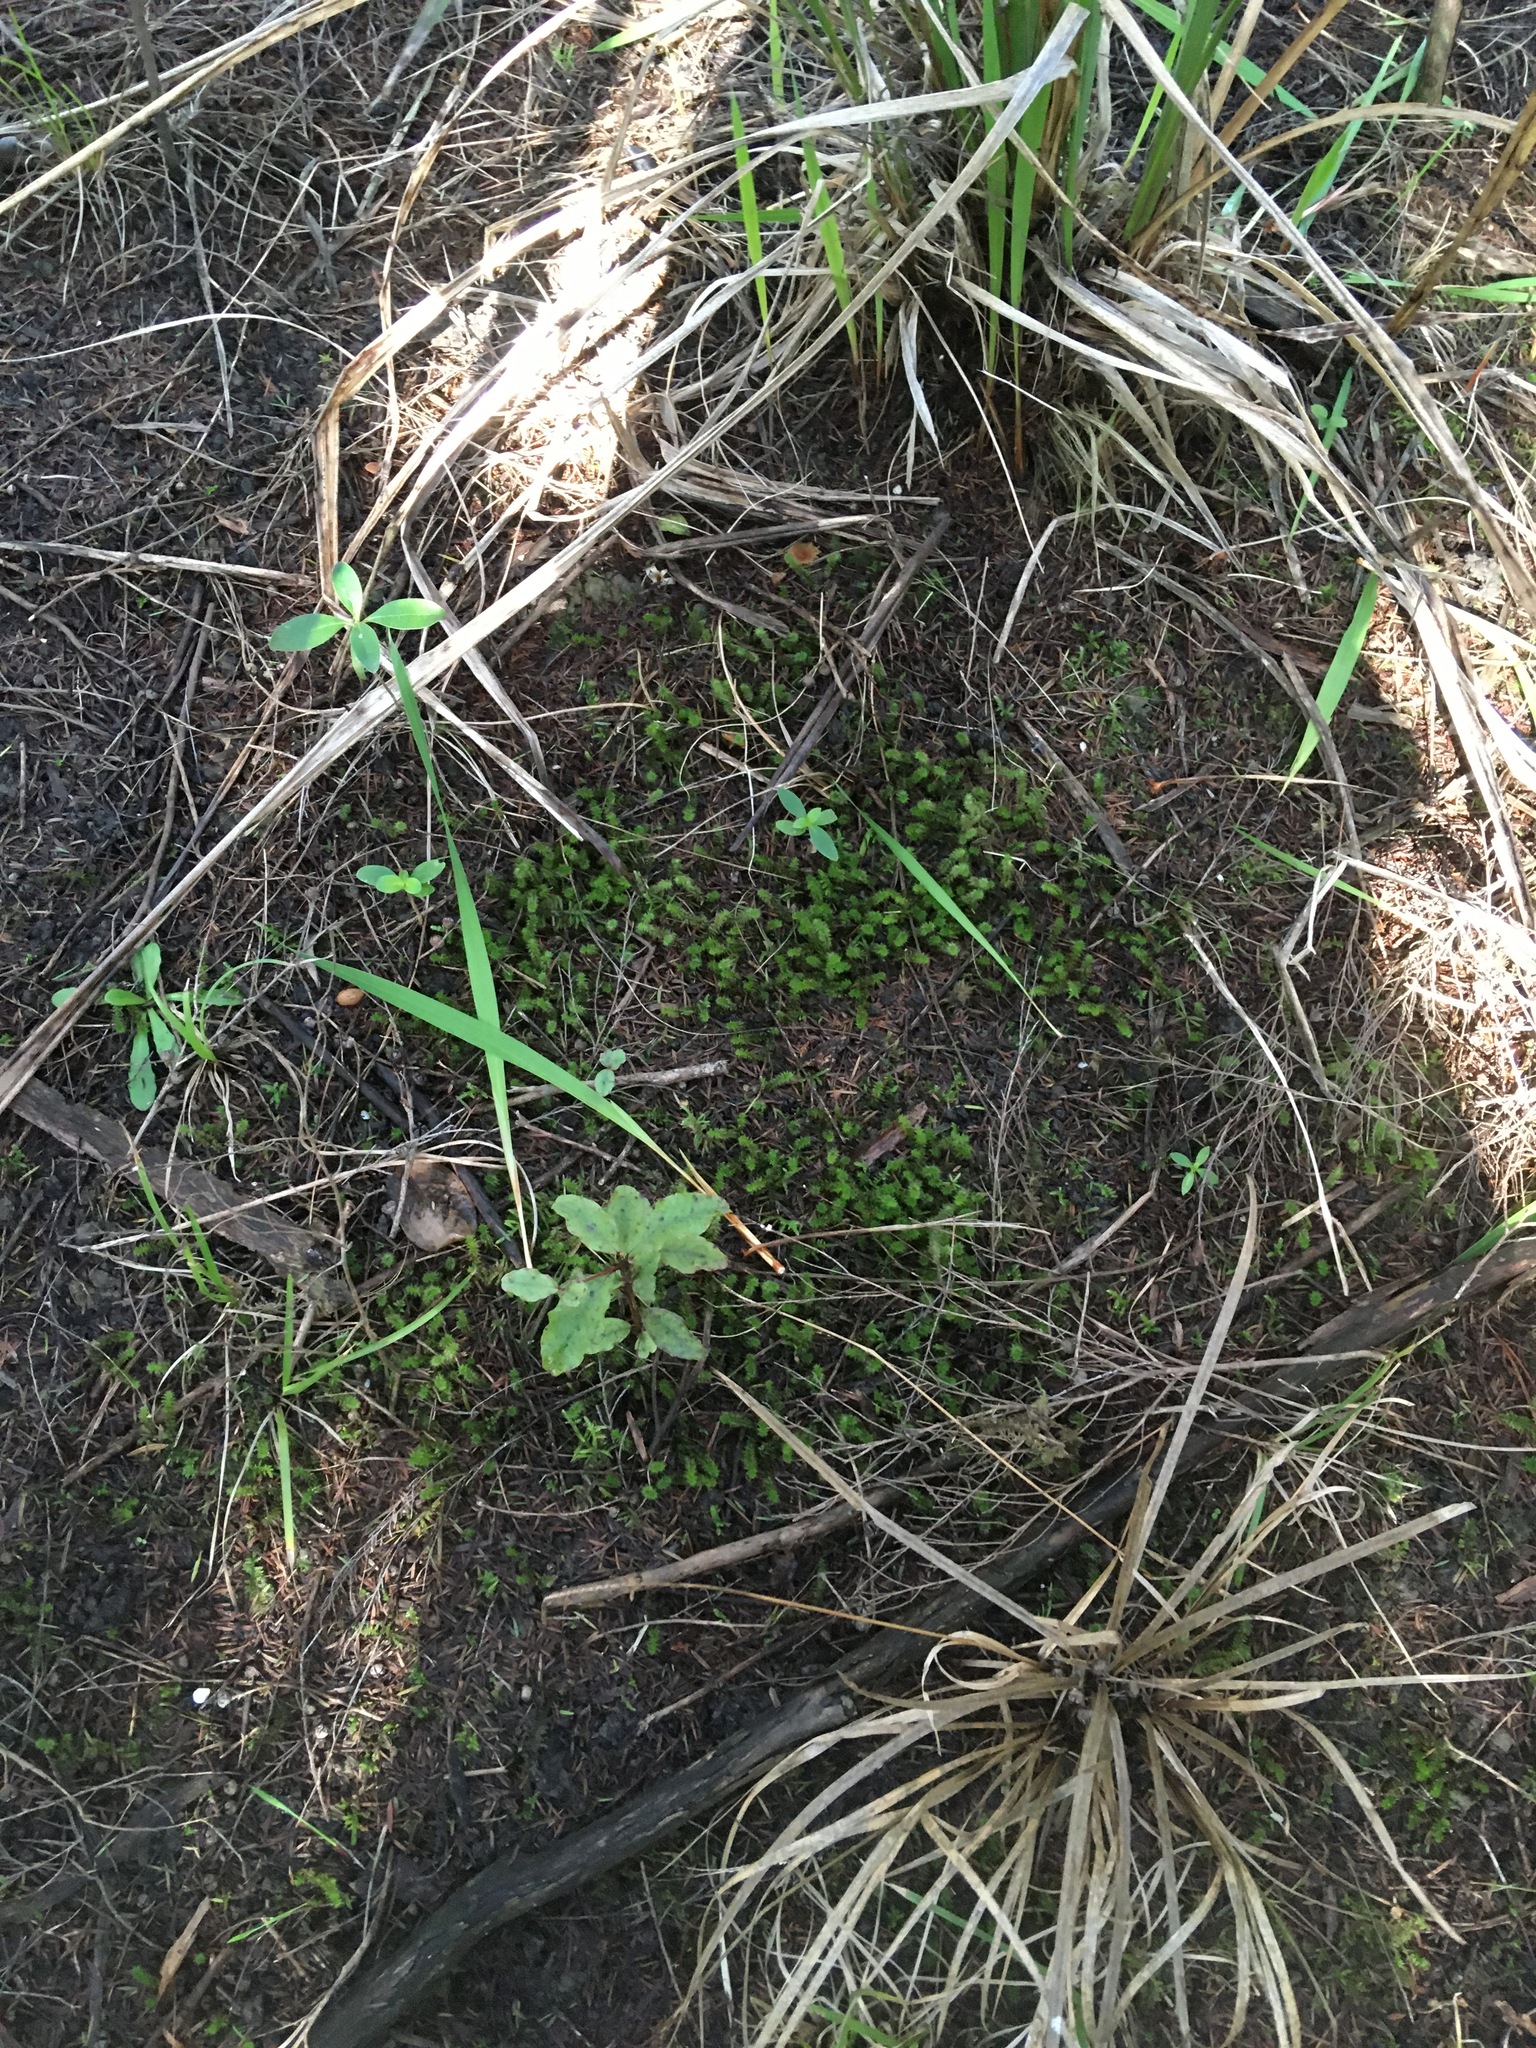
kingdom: Plantae
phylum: Tracheophyta
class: Liliopsida
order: Asparagales
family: Iridaceae
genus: Watsonia
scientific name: Watsonia meriana
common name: Bulbil bugle-lily
